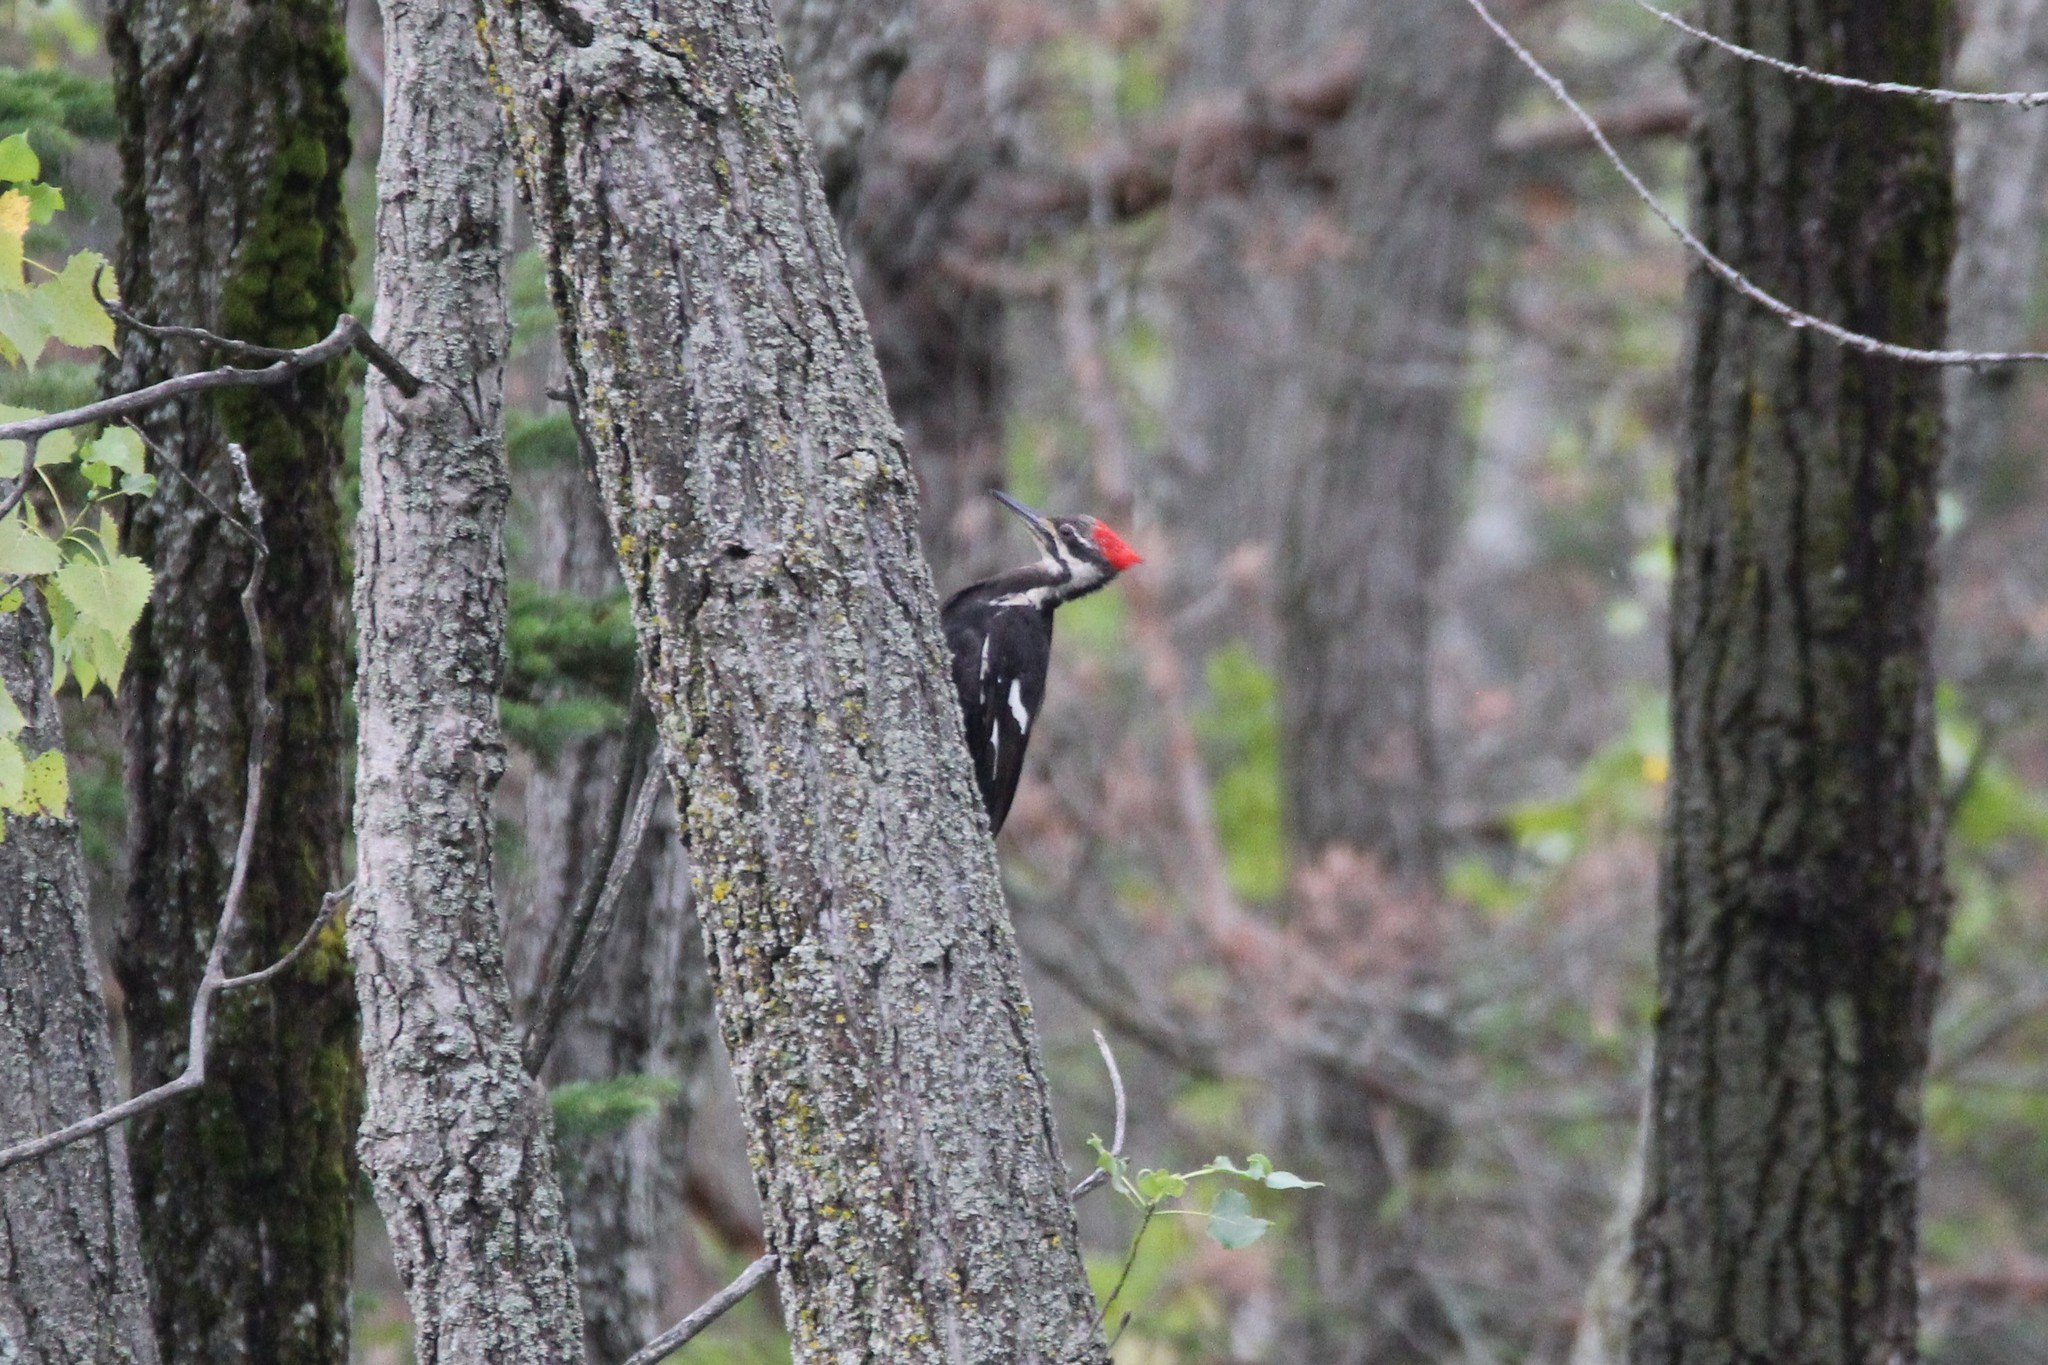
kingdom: Animalia
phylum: Chordata
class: Aves
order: Piciformes
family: Picidae
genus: Dryocopus
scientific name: Dryocopus pileatus
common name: Pileated woodpecker
